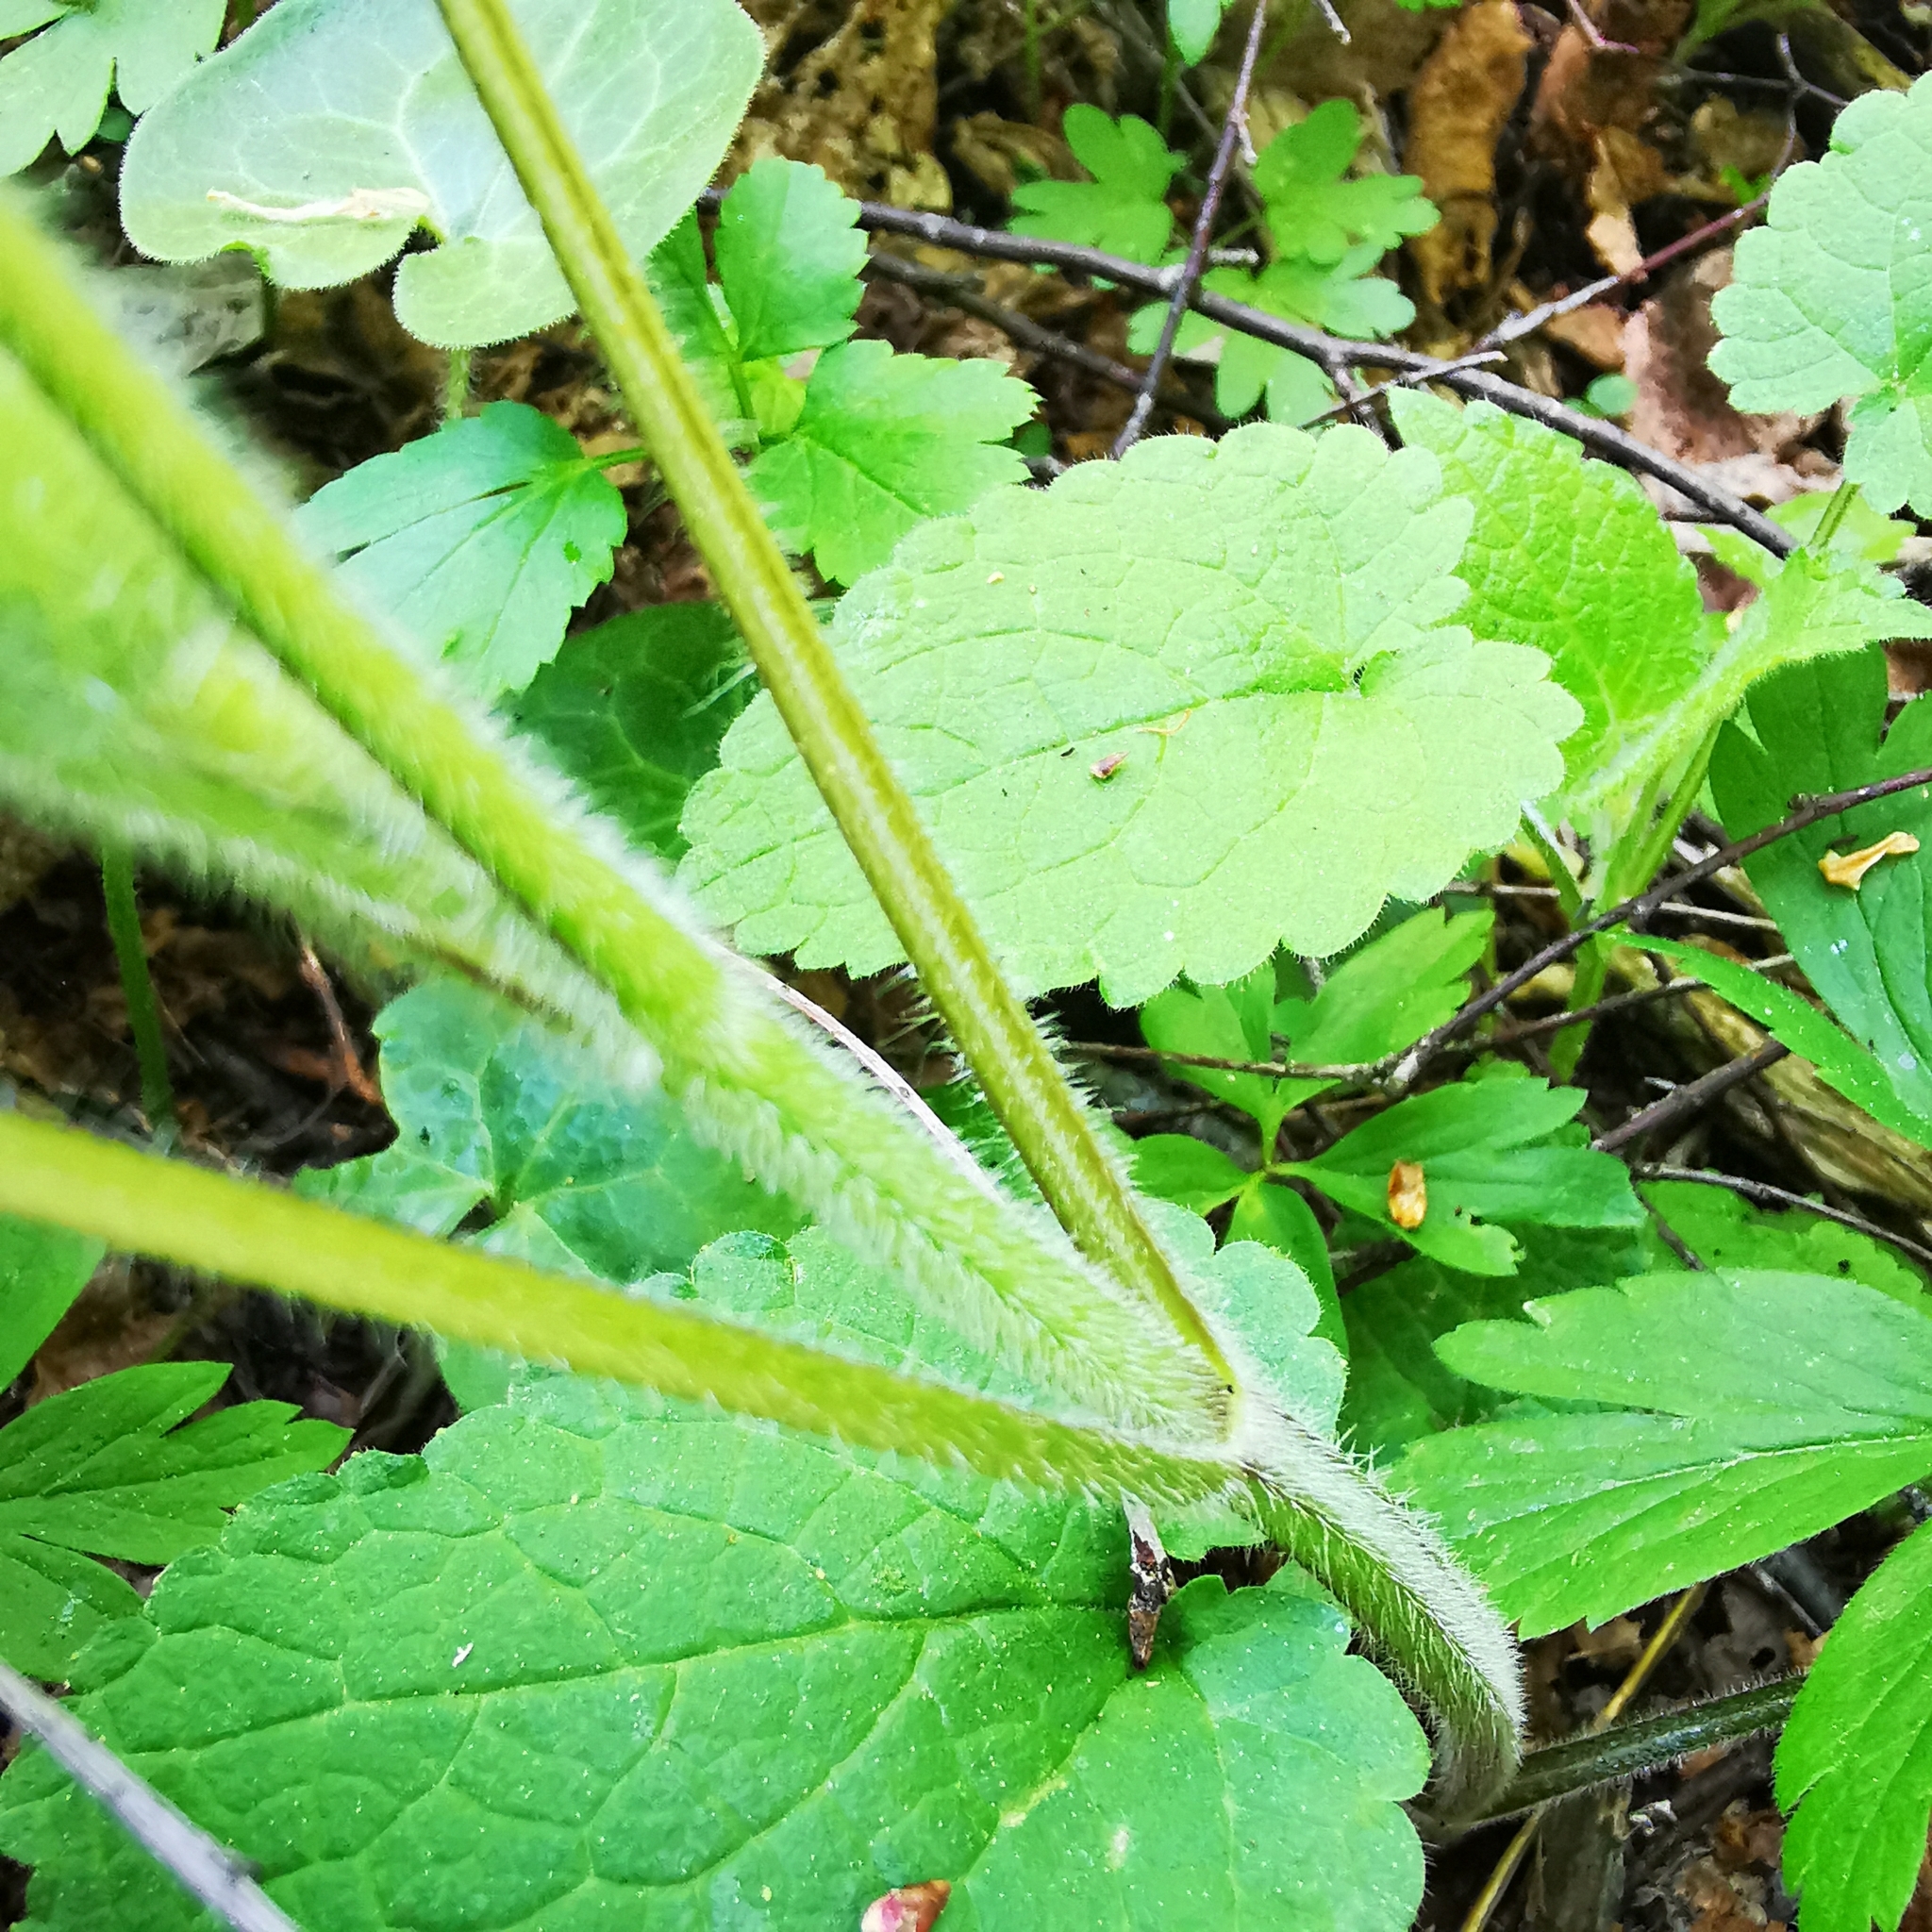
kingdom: Plantae
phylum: Tracheophyta
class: Magnoliopsida
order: Lamiales
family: Lamiaceae
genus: Stachys
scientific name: Stachys sylvatica
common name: Hedge woundwort
